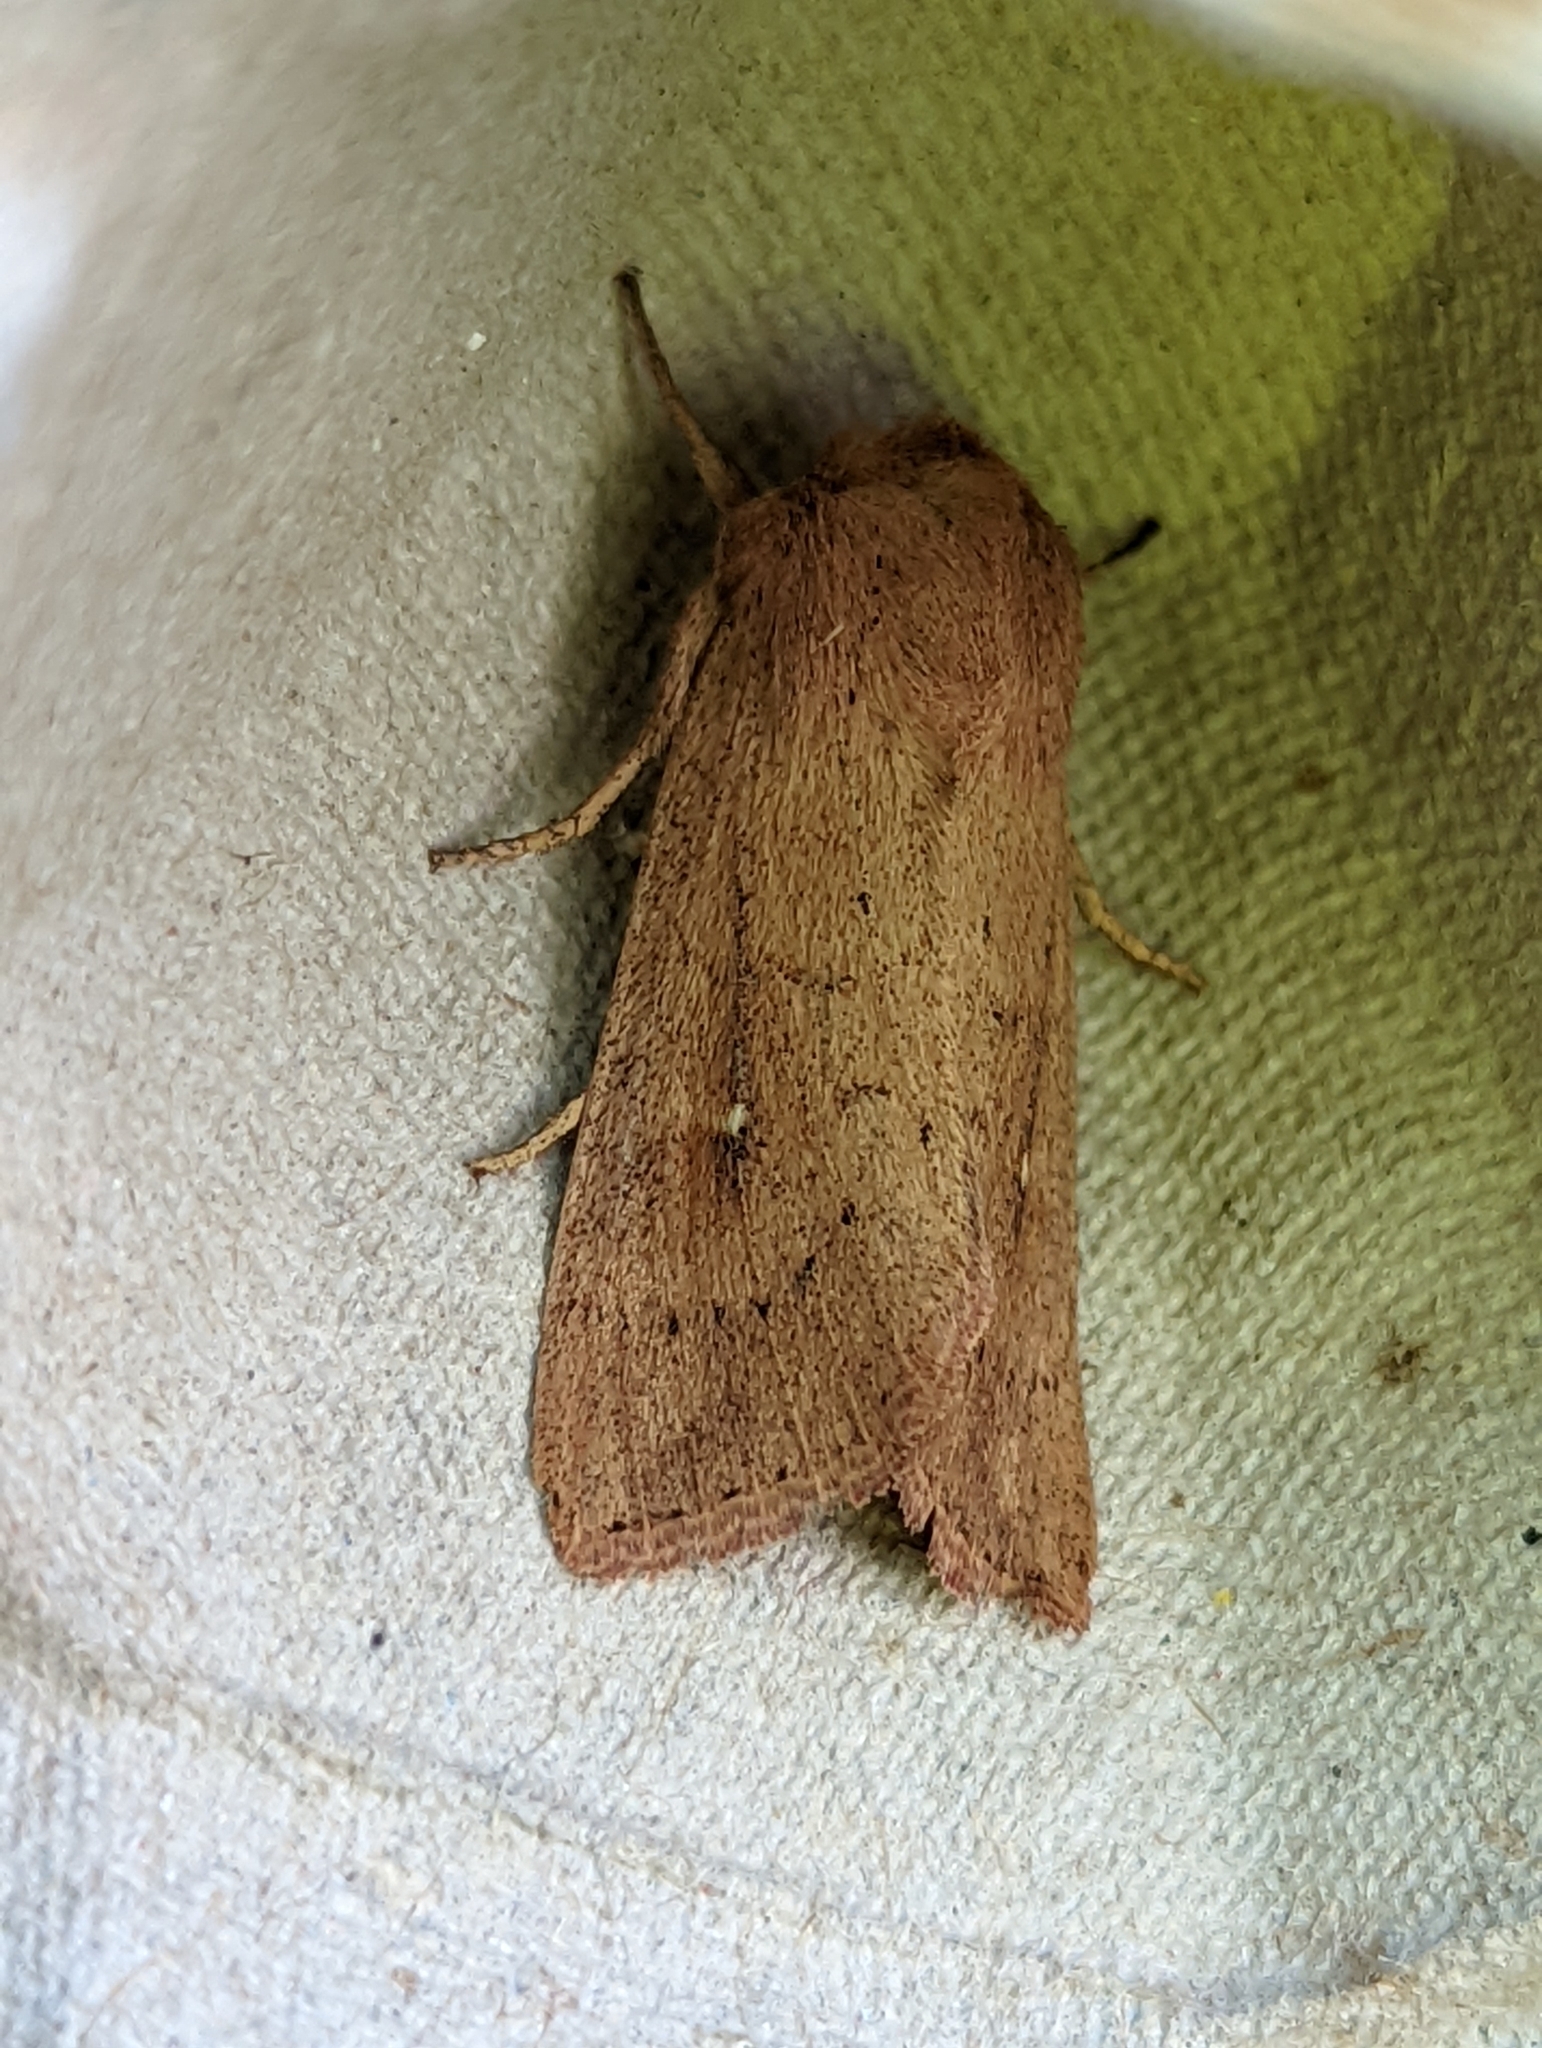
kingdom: Animalia
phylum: Arthropoda
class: Insecta
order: Lepidoptera
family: Noctuidae
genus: Mythimna
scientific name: Mythimna ferrago
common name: Clay
